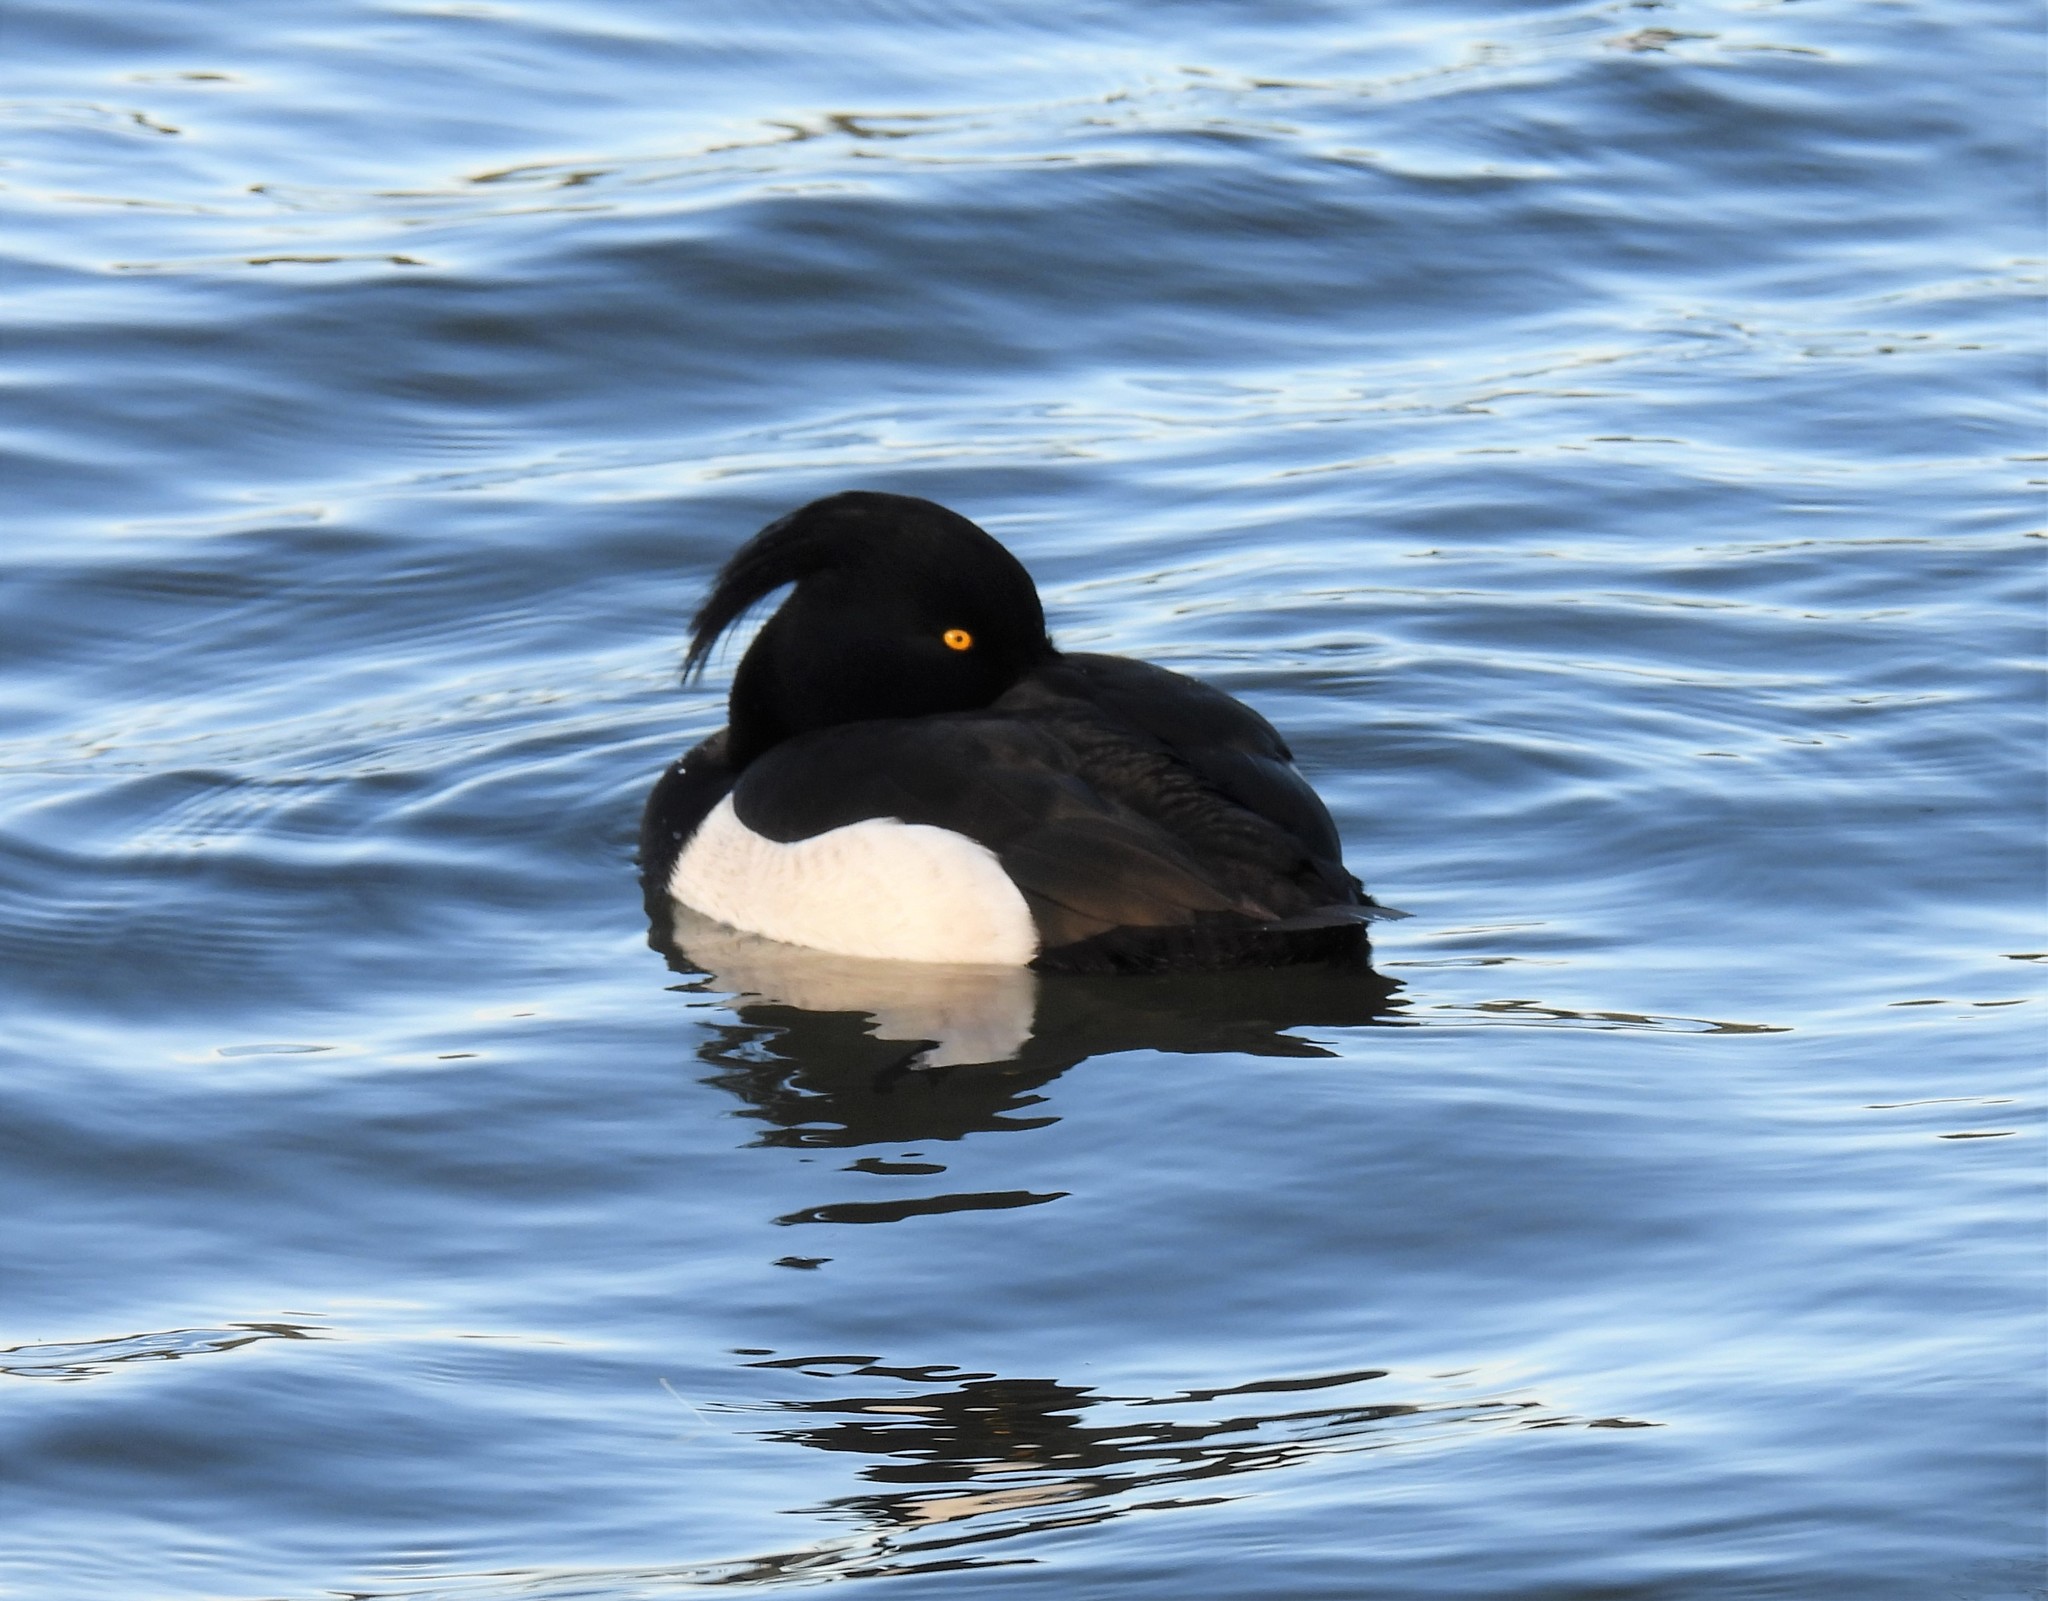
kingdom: Animalia
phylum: Chordata
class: Aves
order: Anseriformes
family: Anatidae
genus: Aythya
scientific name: Aythya fuligula
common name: Tufted duck
